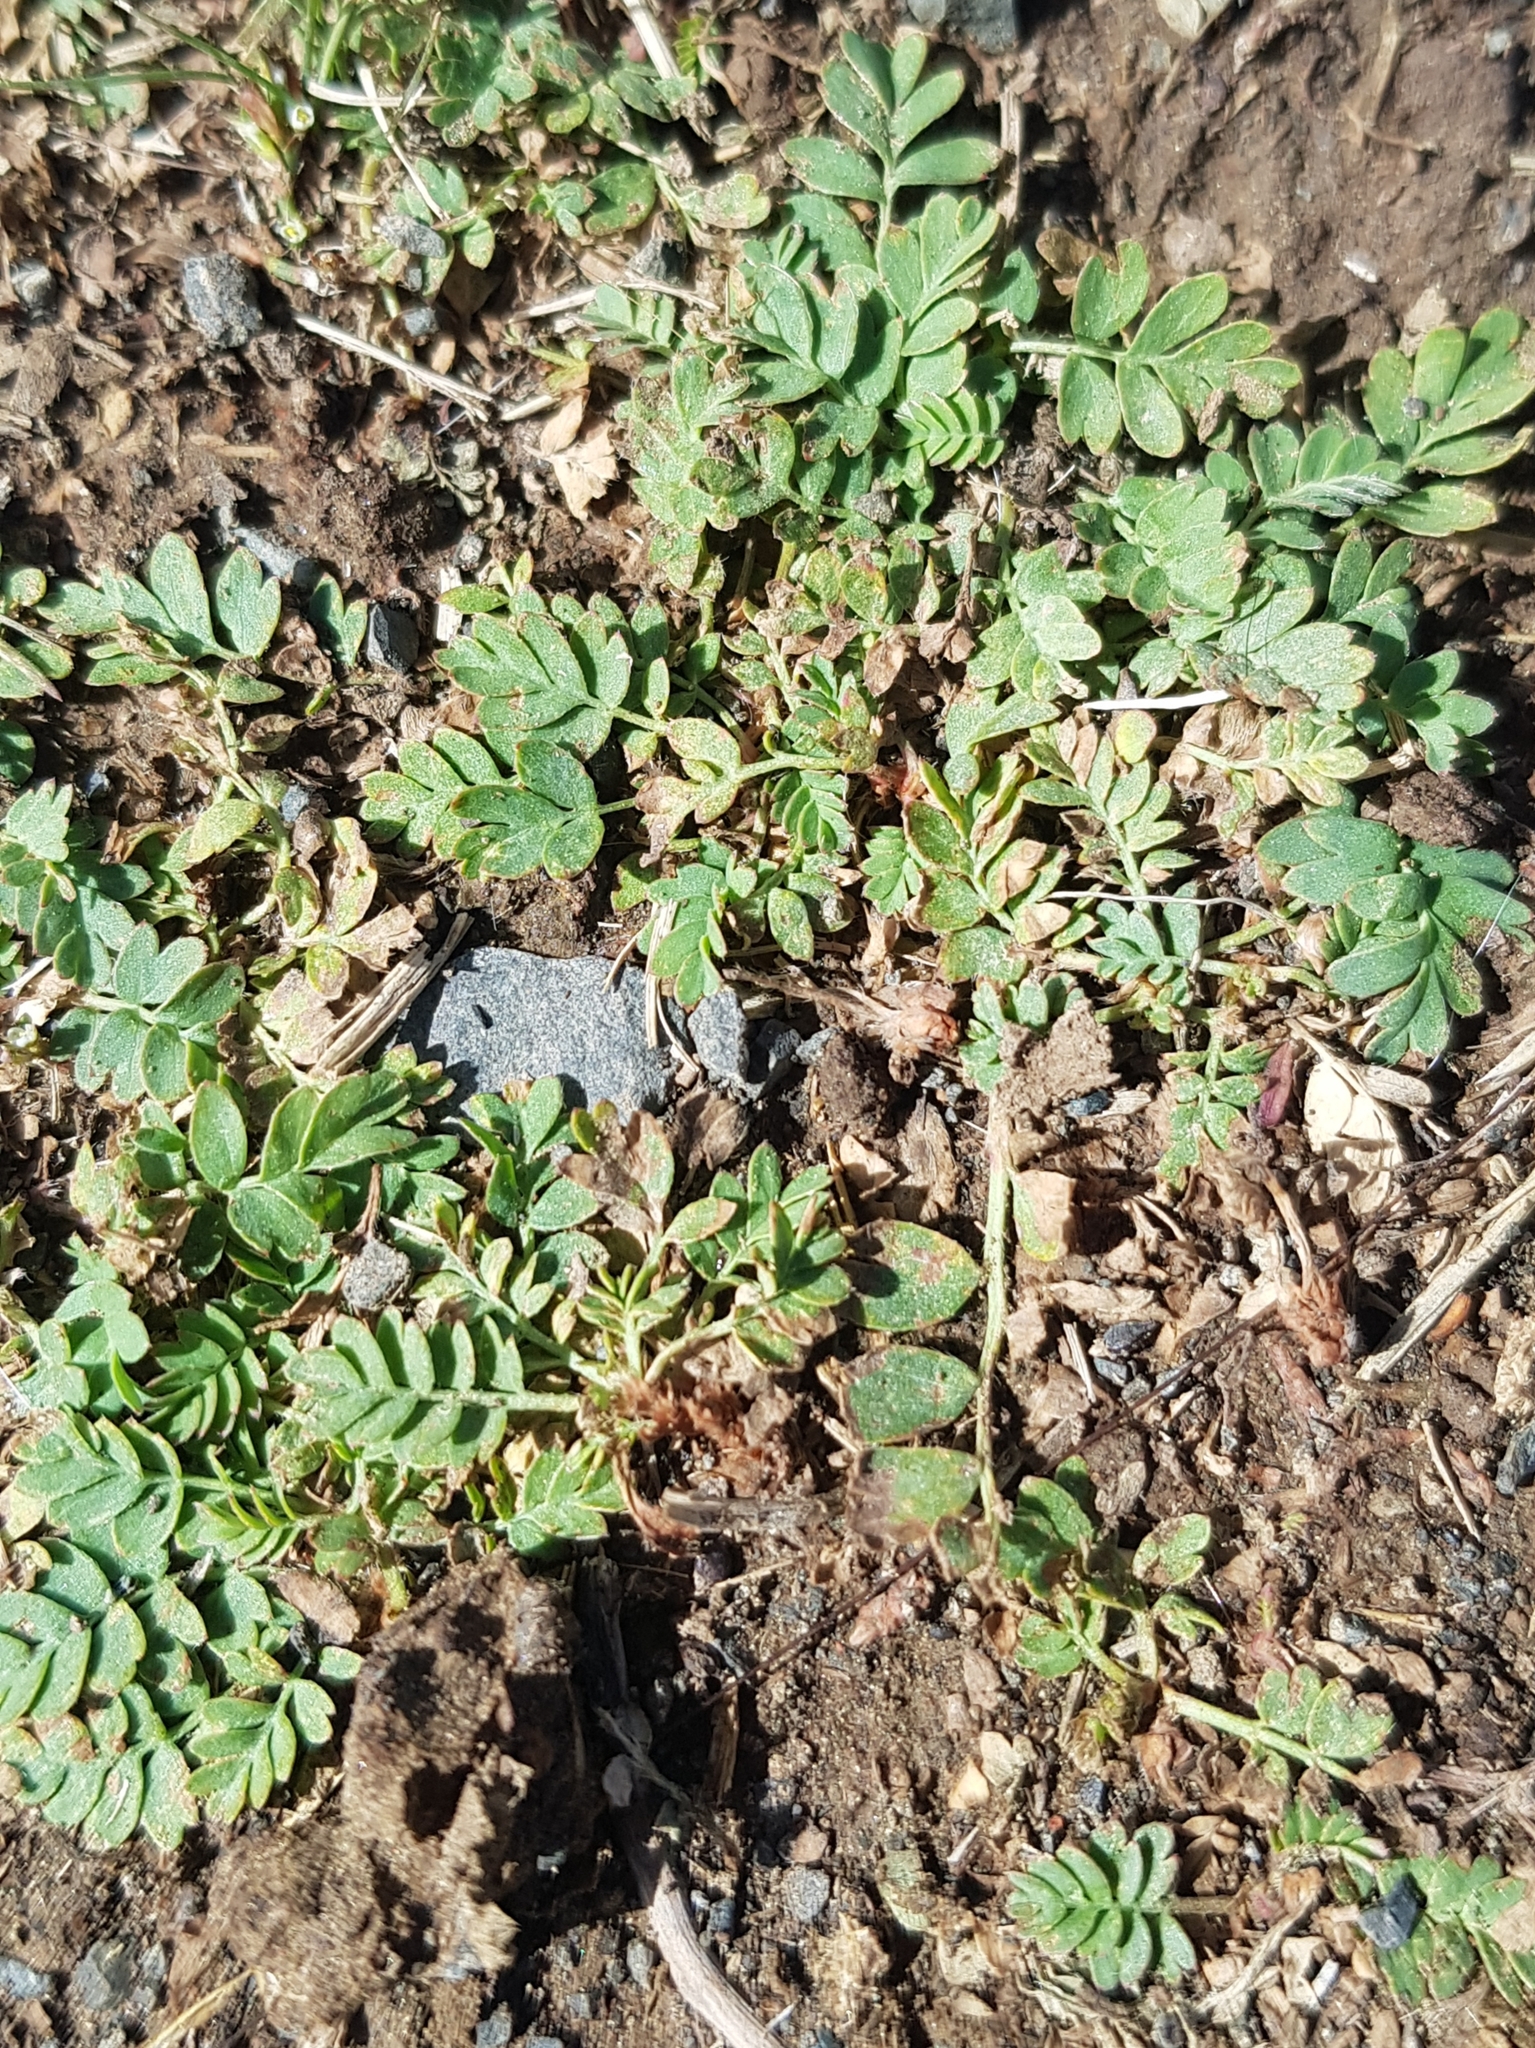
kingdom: Plantae
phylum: Tracheophyta
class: Magnoliopsida
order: Rosales
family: Rosaceae
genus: Sibbaldianthe
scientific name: Sibbaldianthe bifurca
